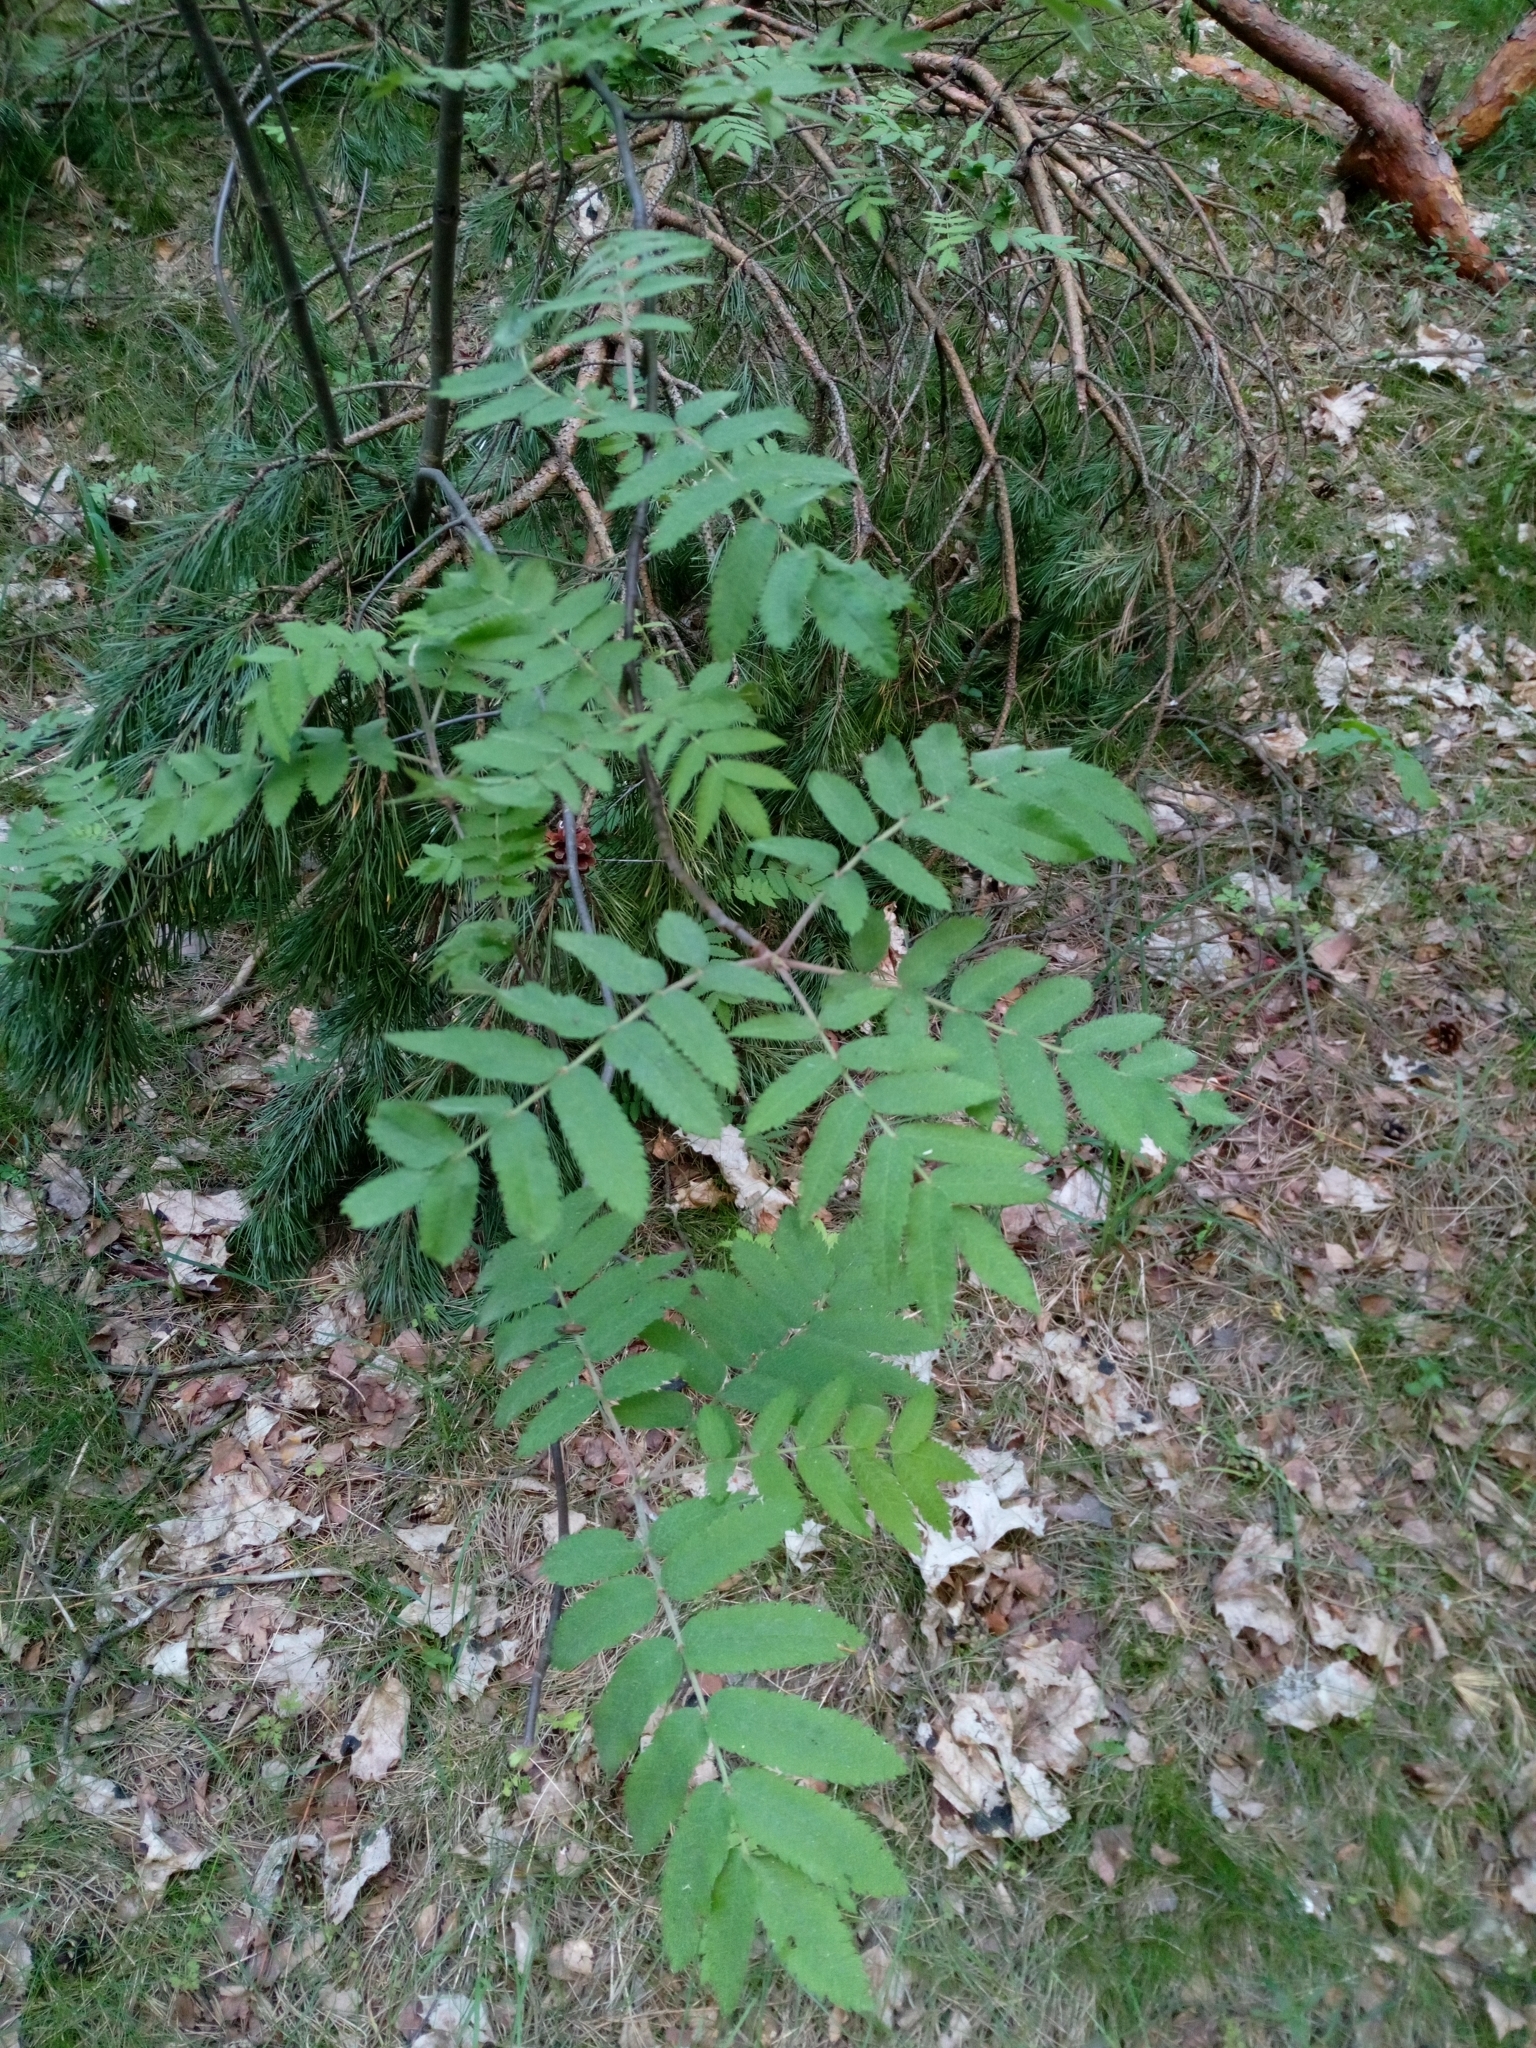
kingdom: Plantae
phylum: Tracheophyta
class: Magnoliopsida
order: Rosales
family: Rosaceae
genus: Sorbus
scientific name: Sorbus aucuparia
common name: Rowan
